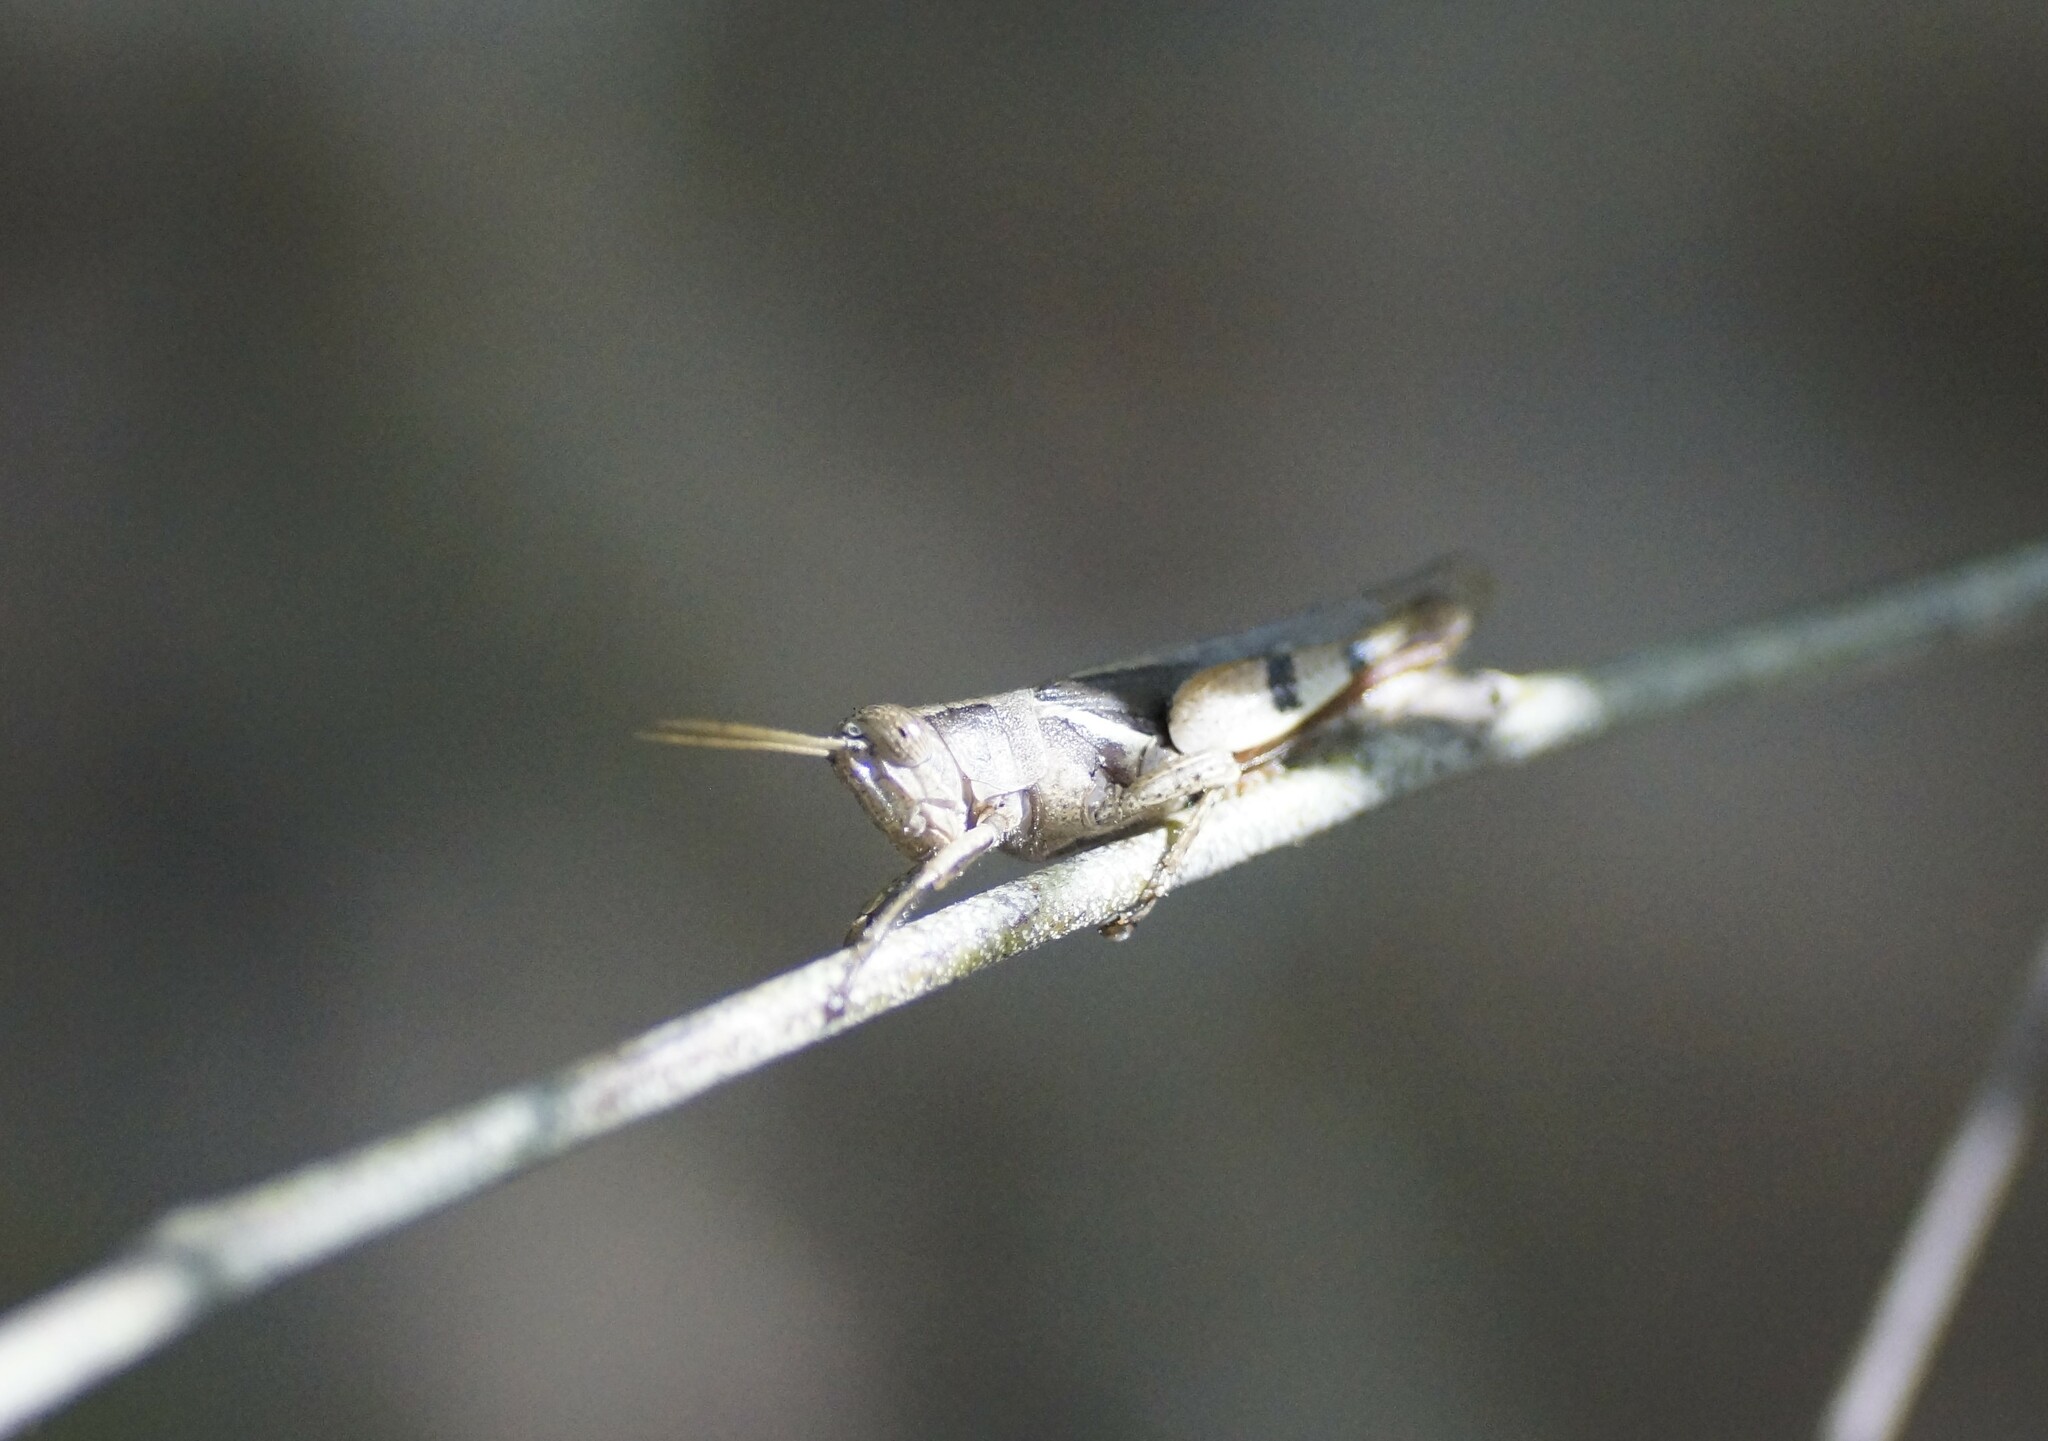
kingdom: Animalia
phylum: Arthropoda
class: Insecta
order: Orthoptera
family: Acrididae
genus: Stenocatantops
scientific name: Stenocatantops angustifrons
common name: Common tropical sharptail
